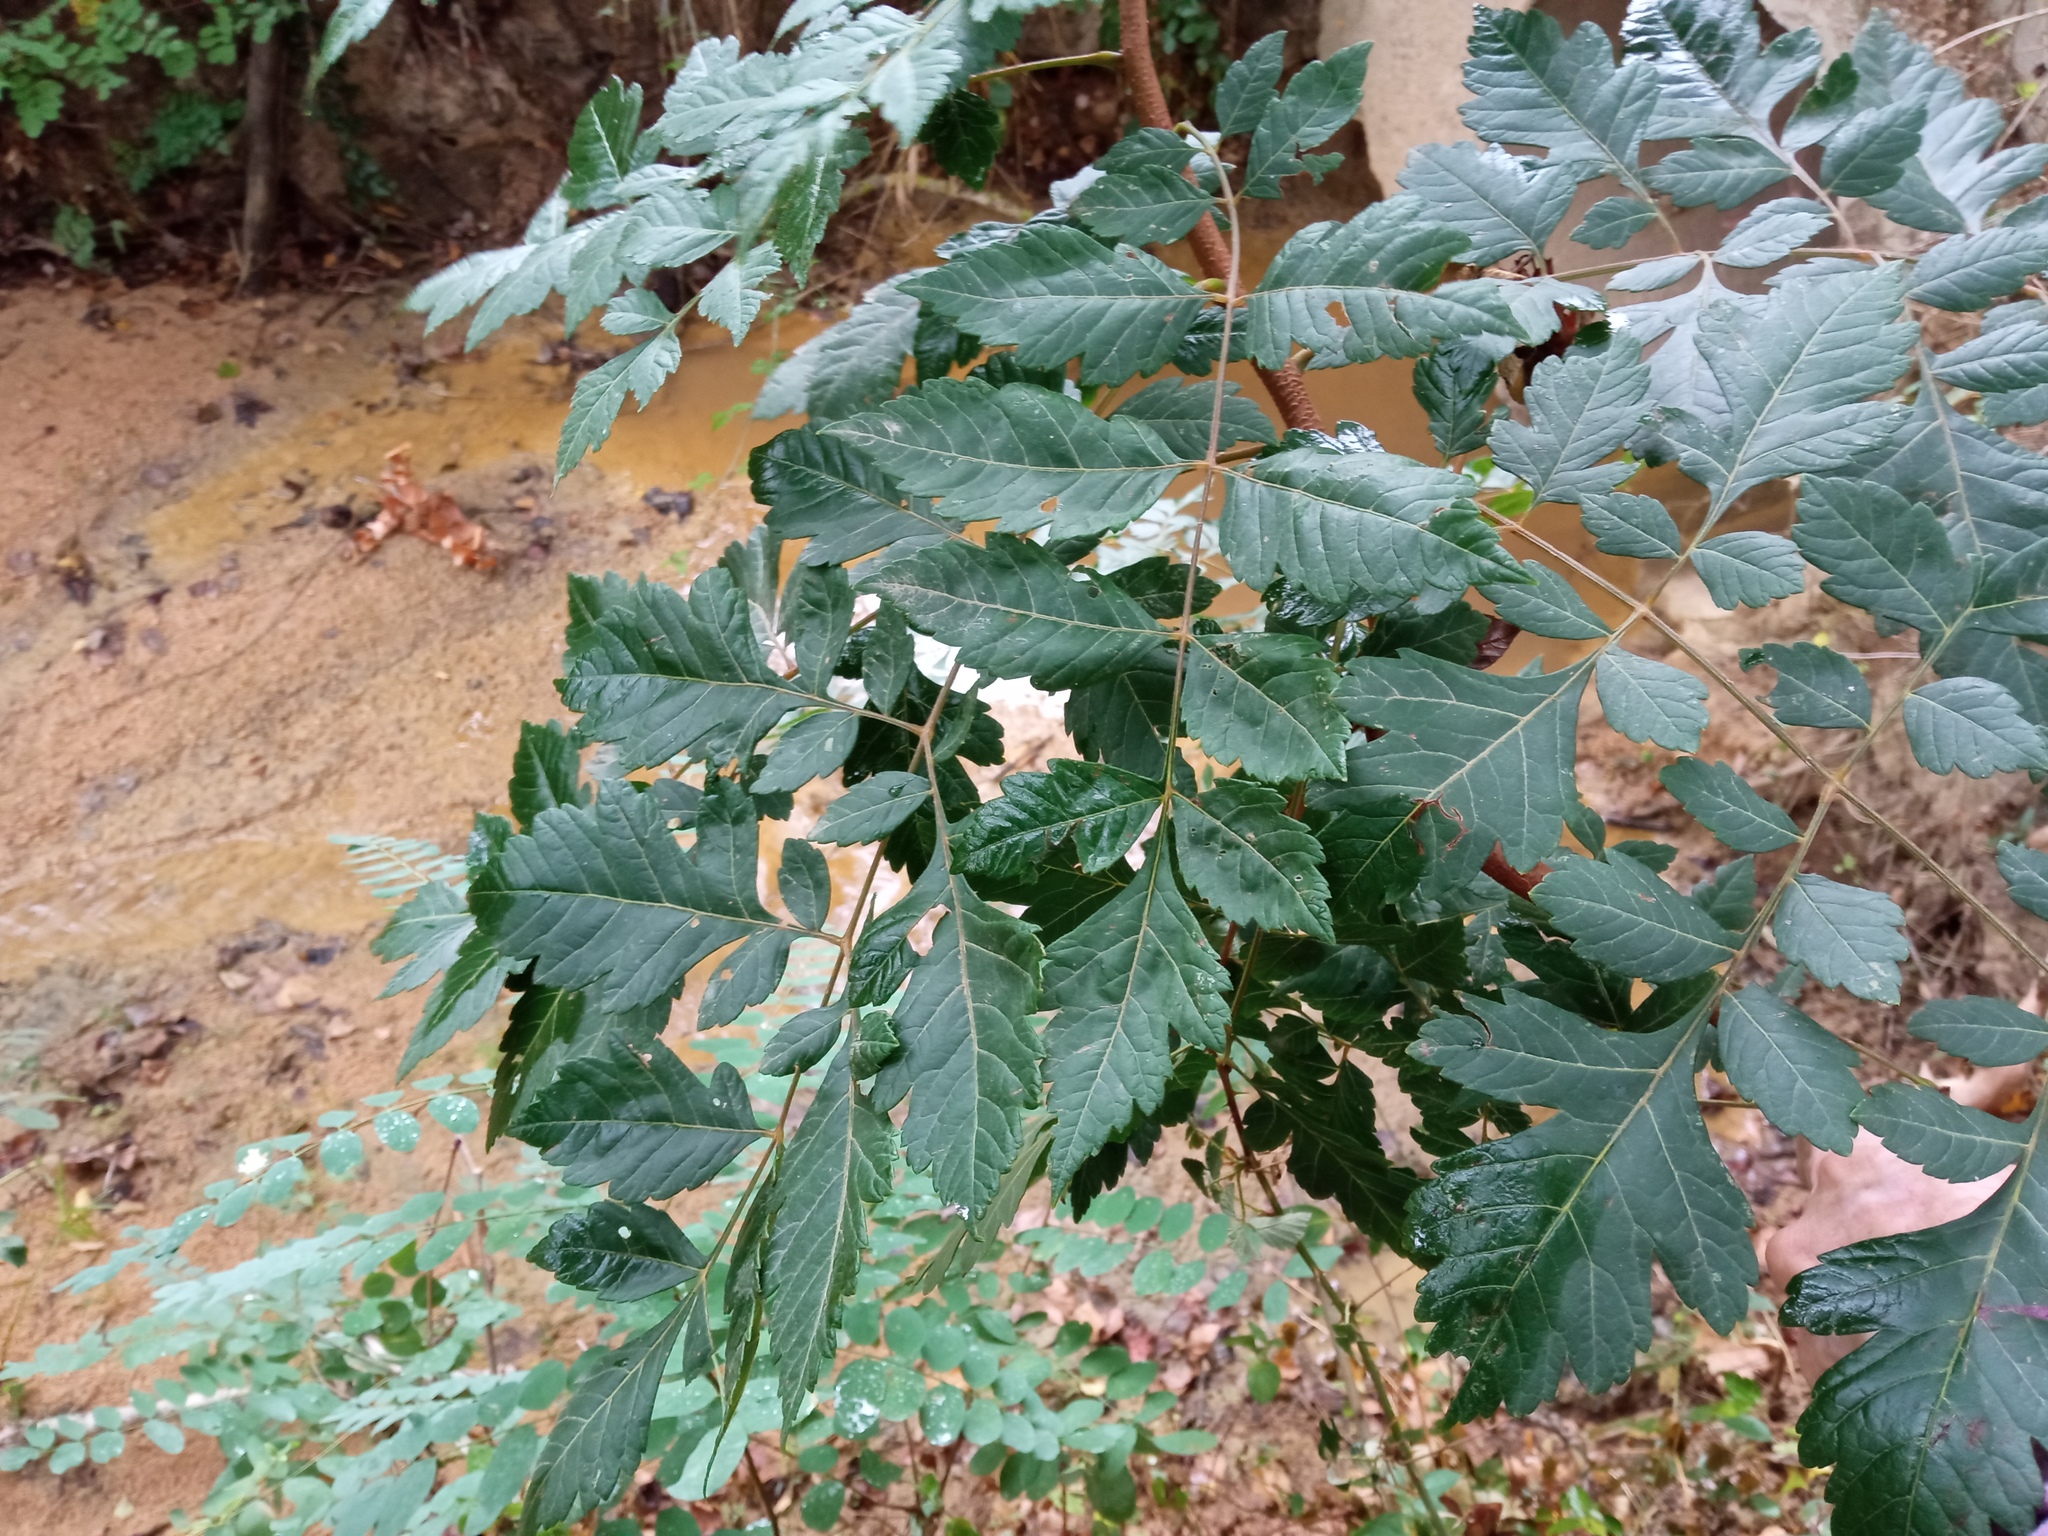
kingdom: Plantae
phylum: Tracheophyta
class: Magnoliopsida
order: Sapindales
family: Sapindaceae
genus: Koelreuteria
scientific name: Koelreuteria paniculata
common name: Pride-of-india
